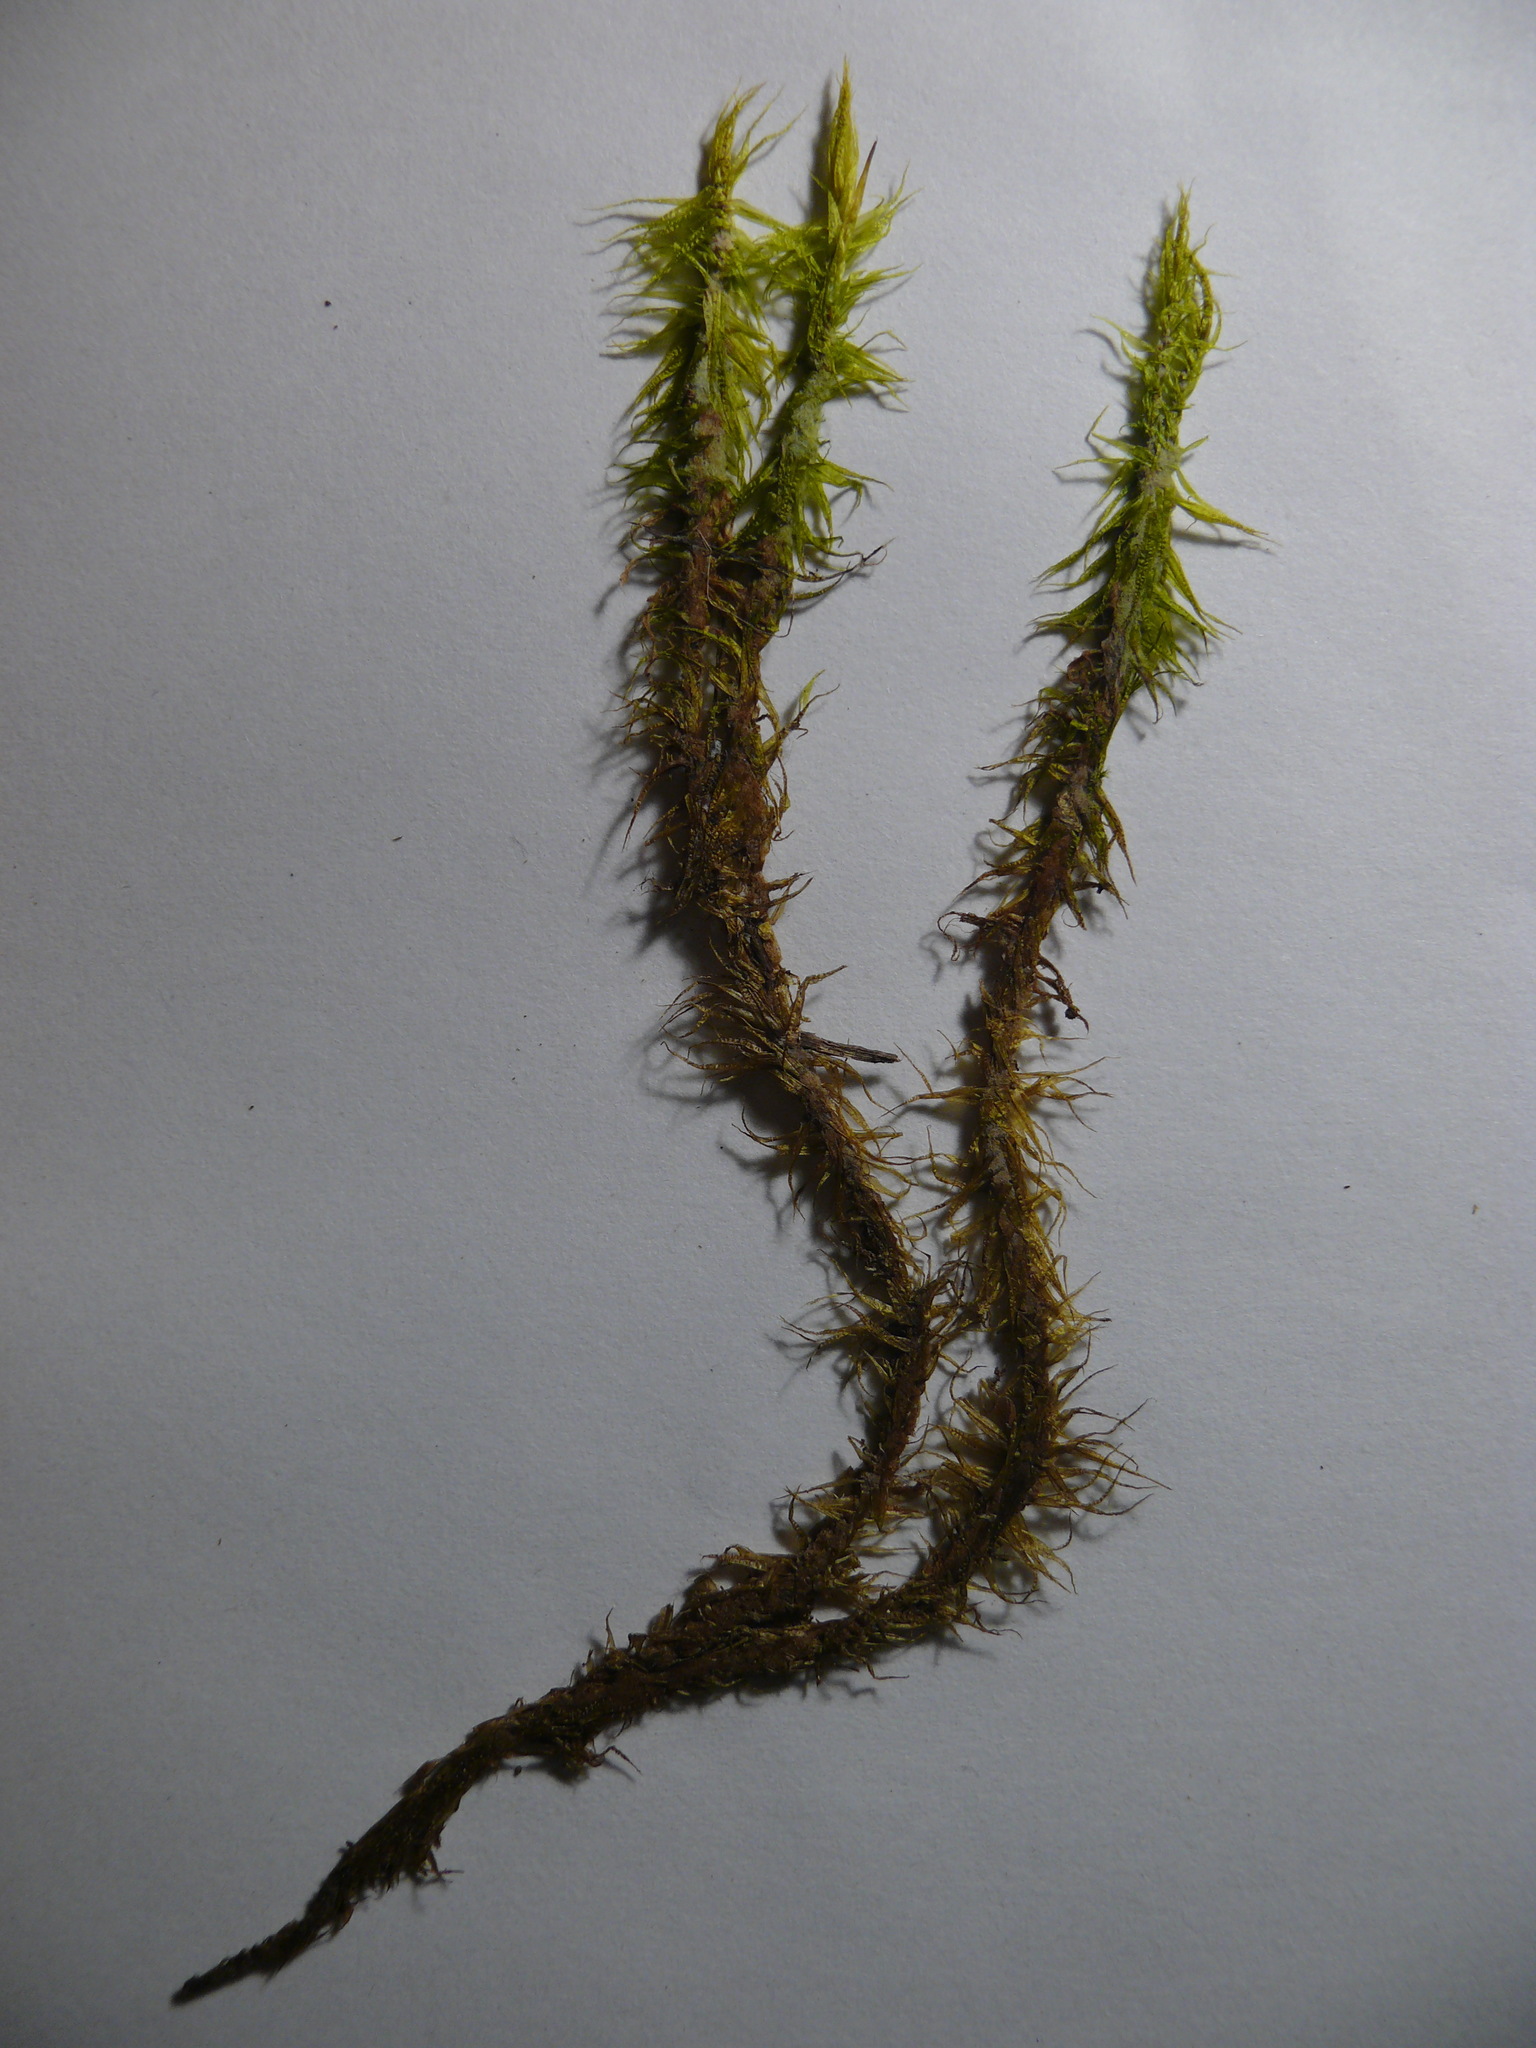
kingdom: Plantae
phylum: Bryophyta
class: Bryopsida
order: Dicranales
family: Dicranaceae
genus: Dicranum
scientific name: Dicranum polysetum
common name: Rugose fork-moss
